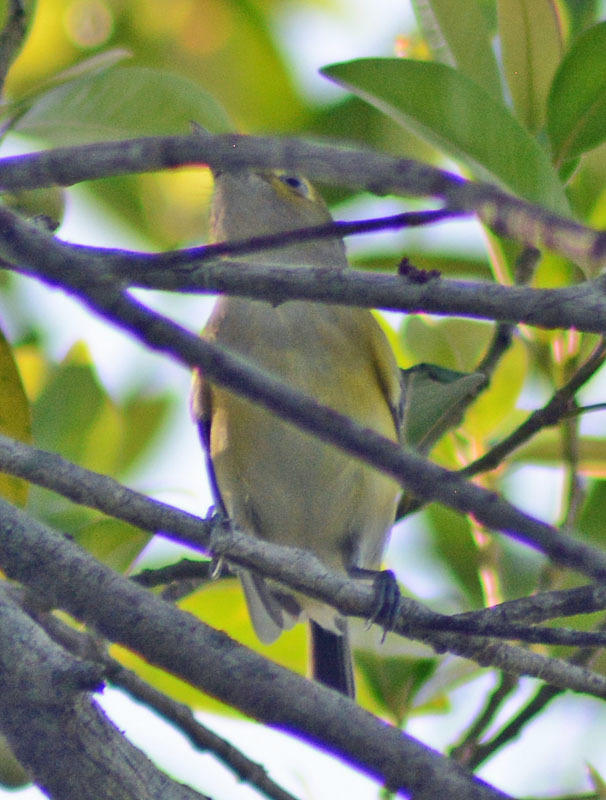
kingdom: Animalia
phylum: Chordata
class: Aves
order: Passeriformes
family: Vireonidae
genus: Vireo
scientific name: Vireo griseus
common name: White-eyed vireo
